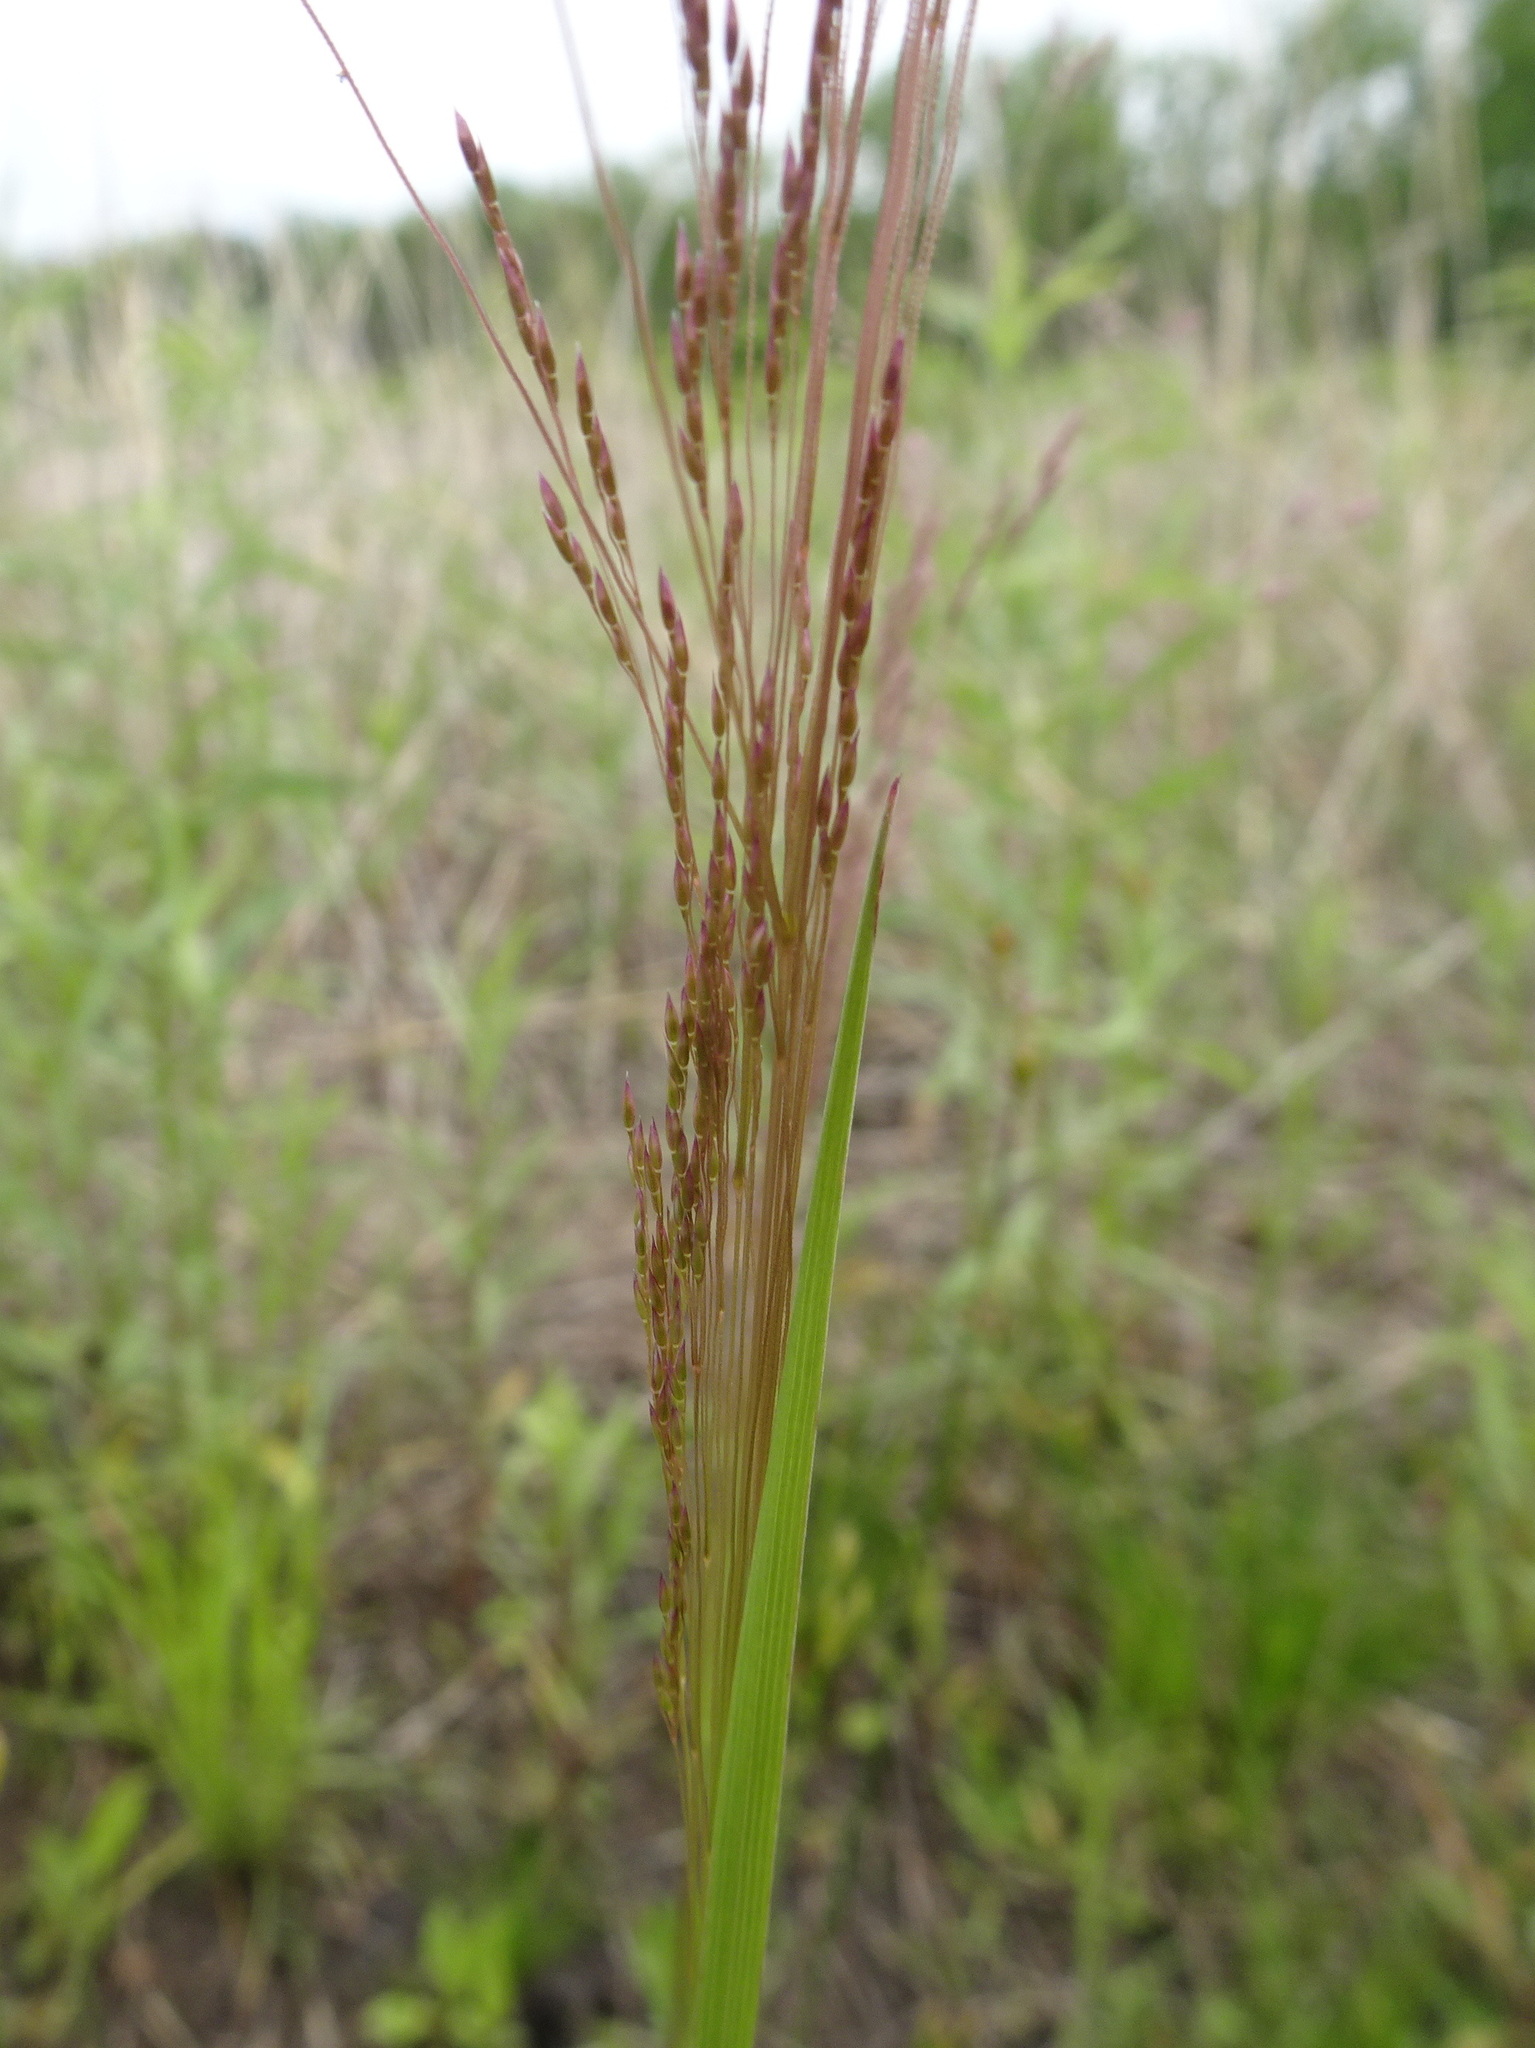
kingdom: Plantae
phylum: Tracheophyta
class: Liliopsida
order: Poales
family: Poaceae
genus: Agrostis
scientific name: Agrostis hyemalis
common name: Small bent
